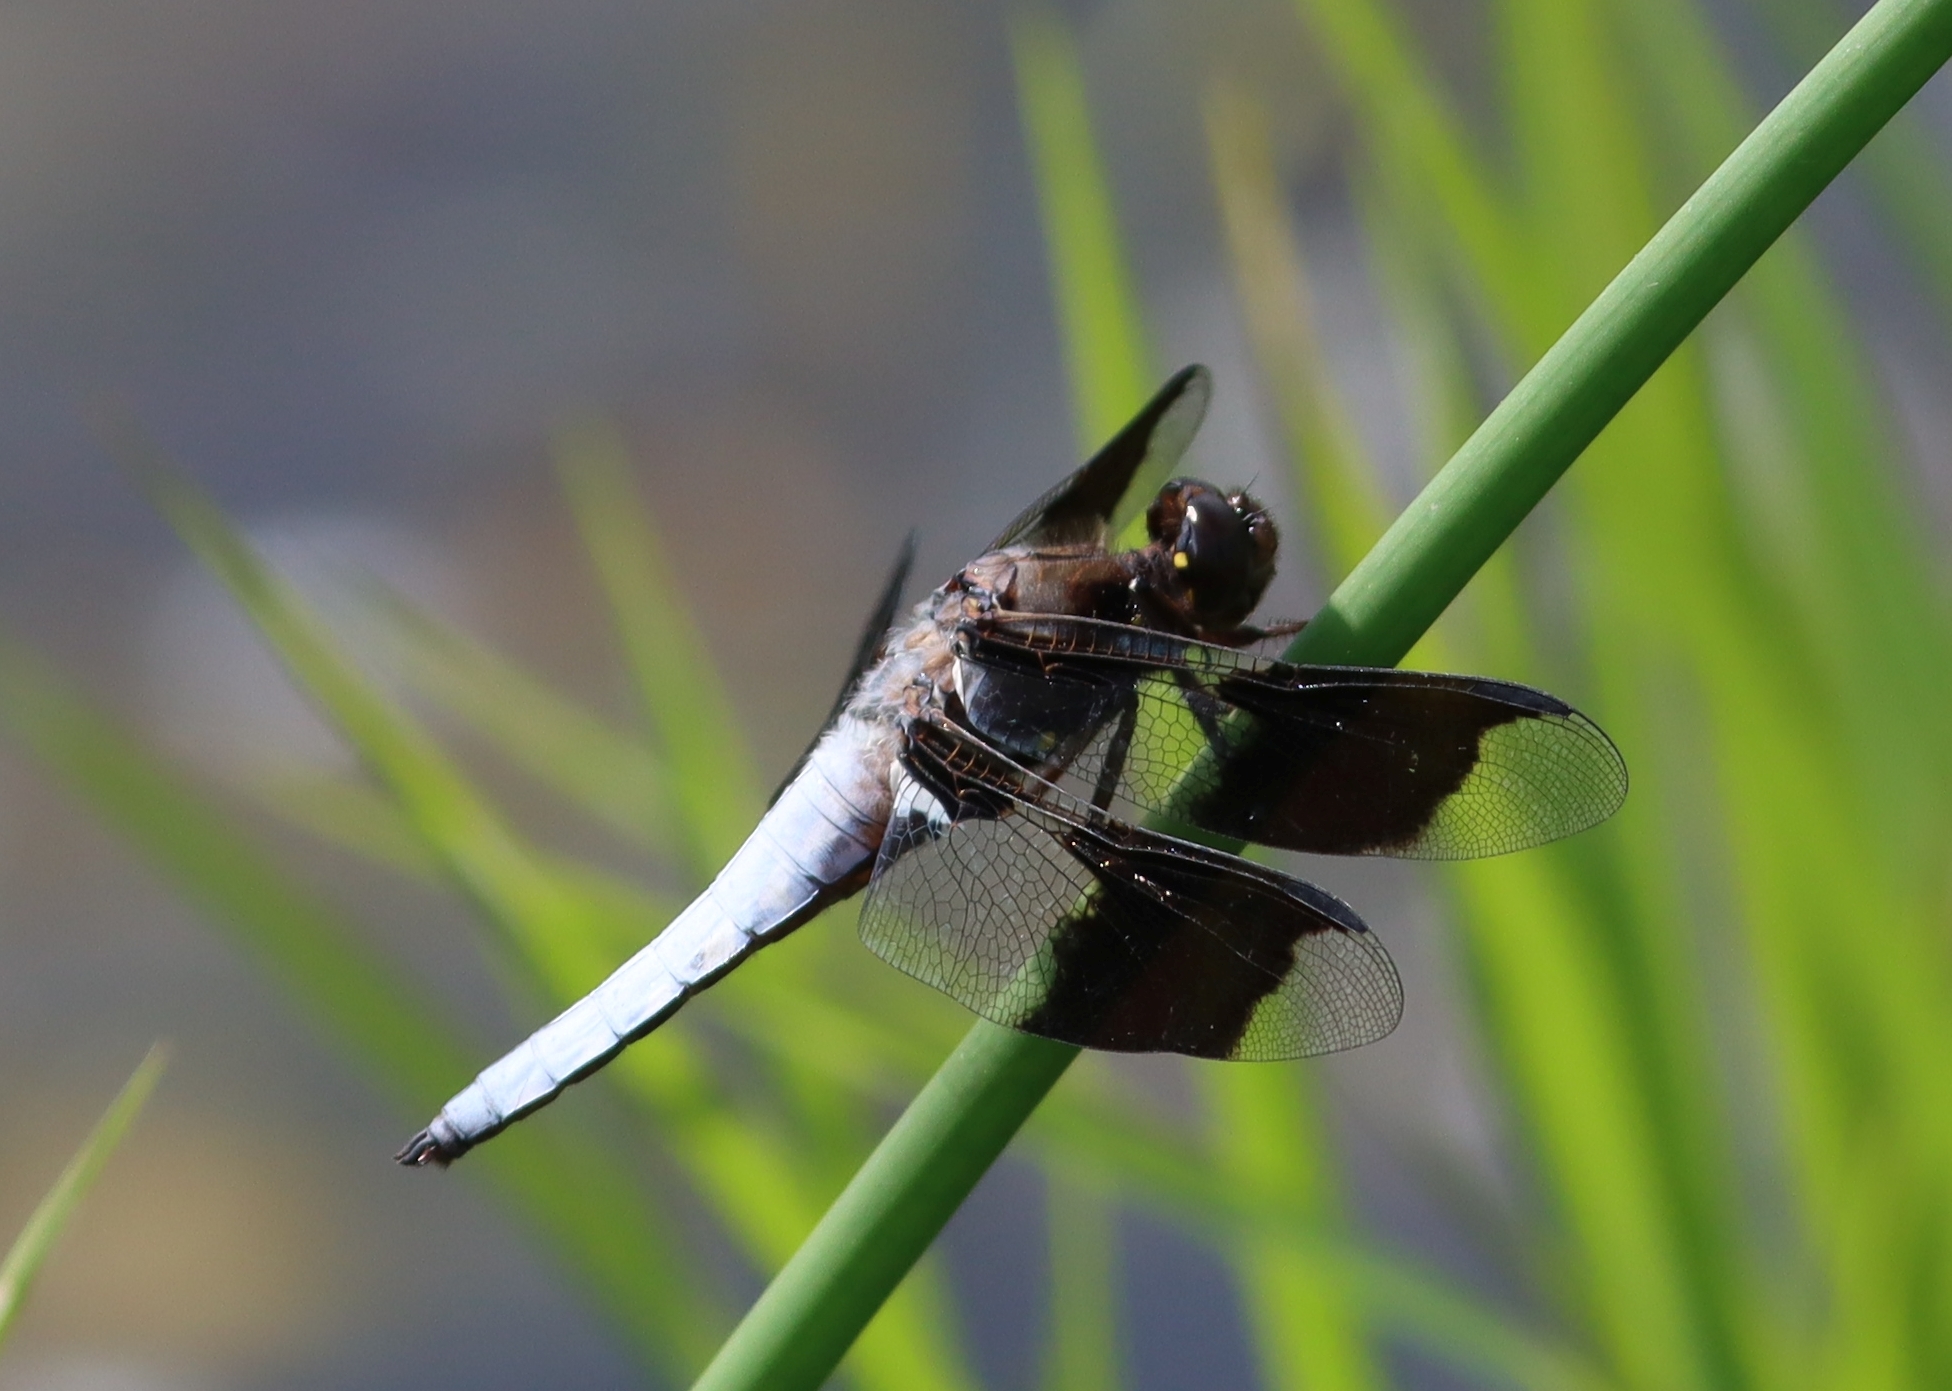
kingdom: Animalia
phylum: Arthropoda
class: Insecta
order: Odonata
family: Libellulidae
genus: Plathemis
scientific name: Plathemis lydia
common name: Common whitetail
